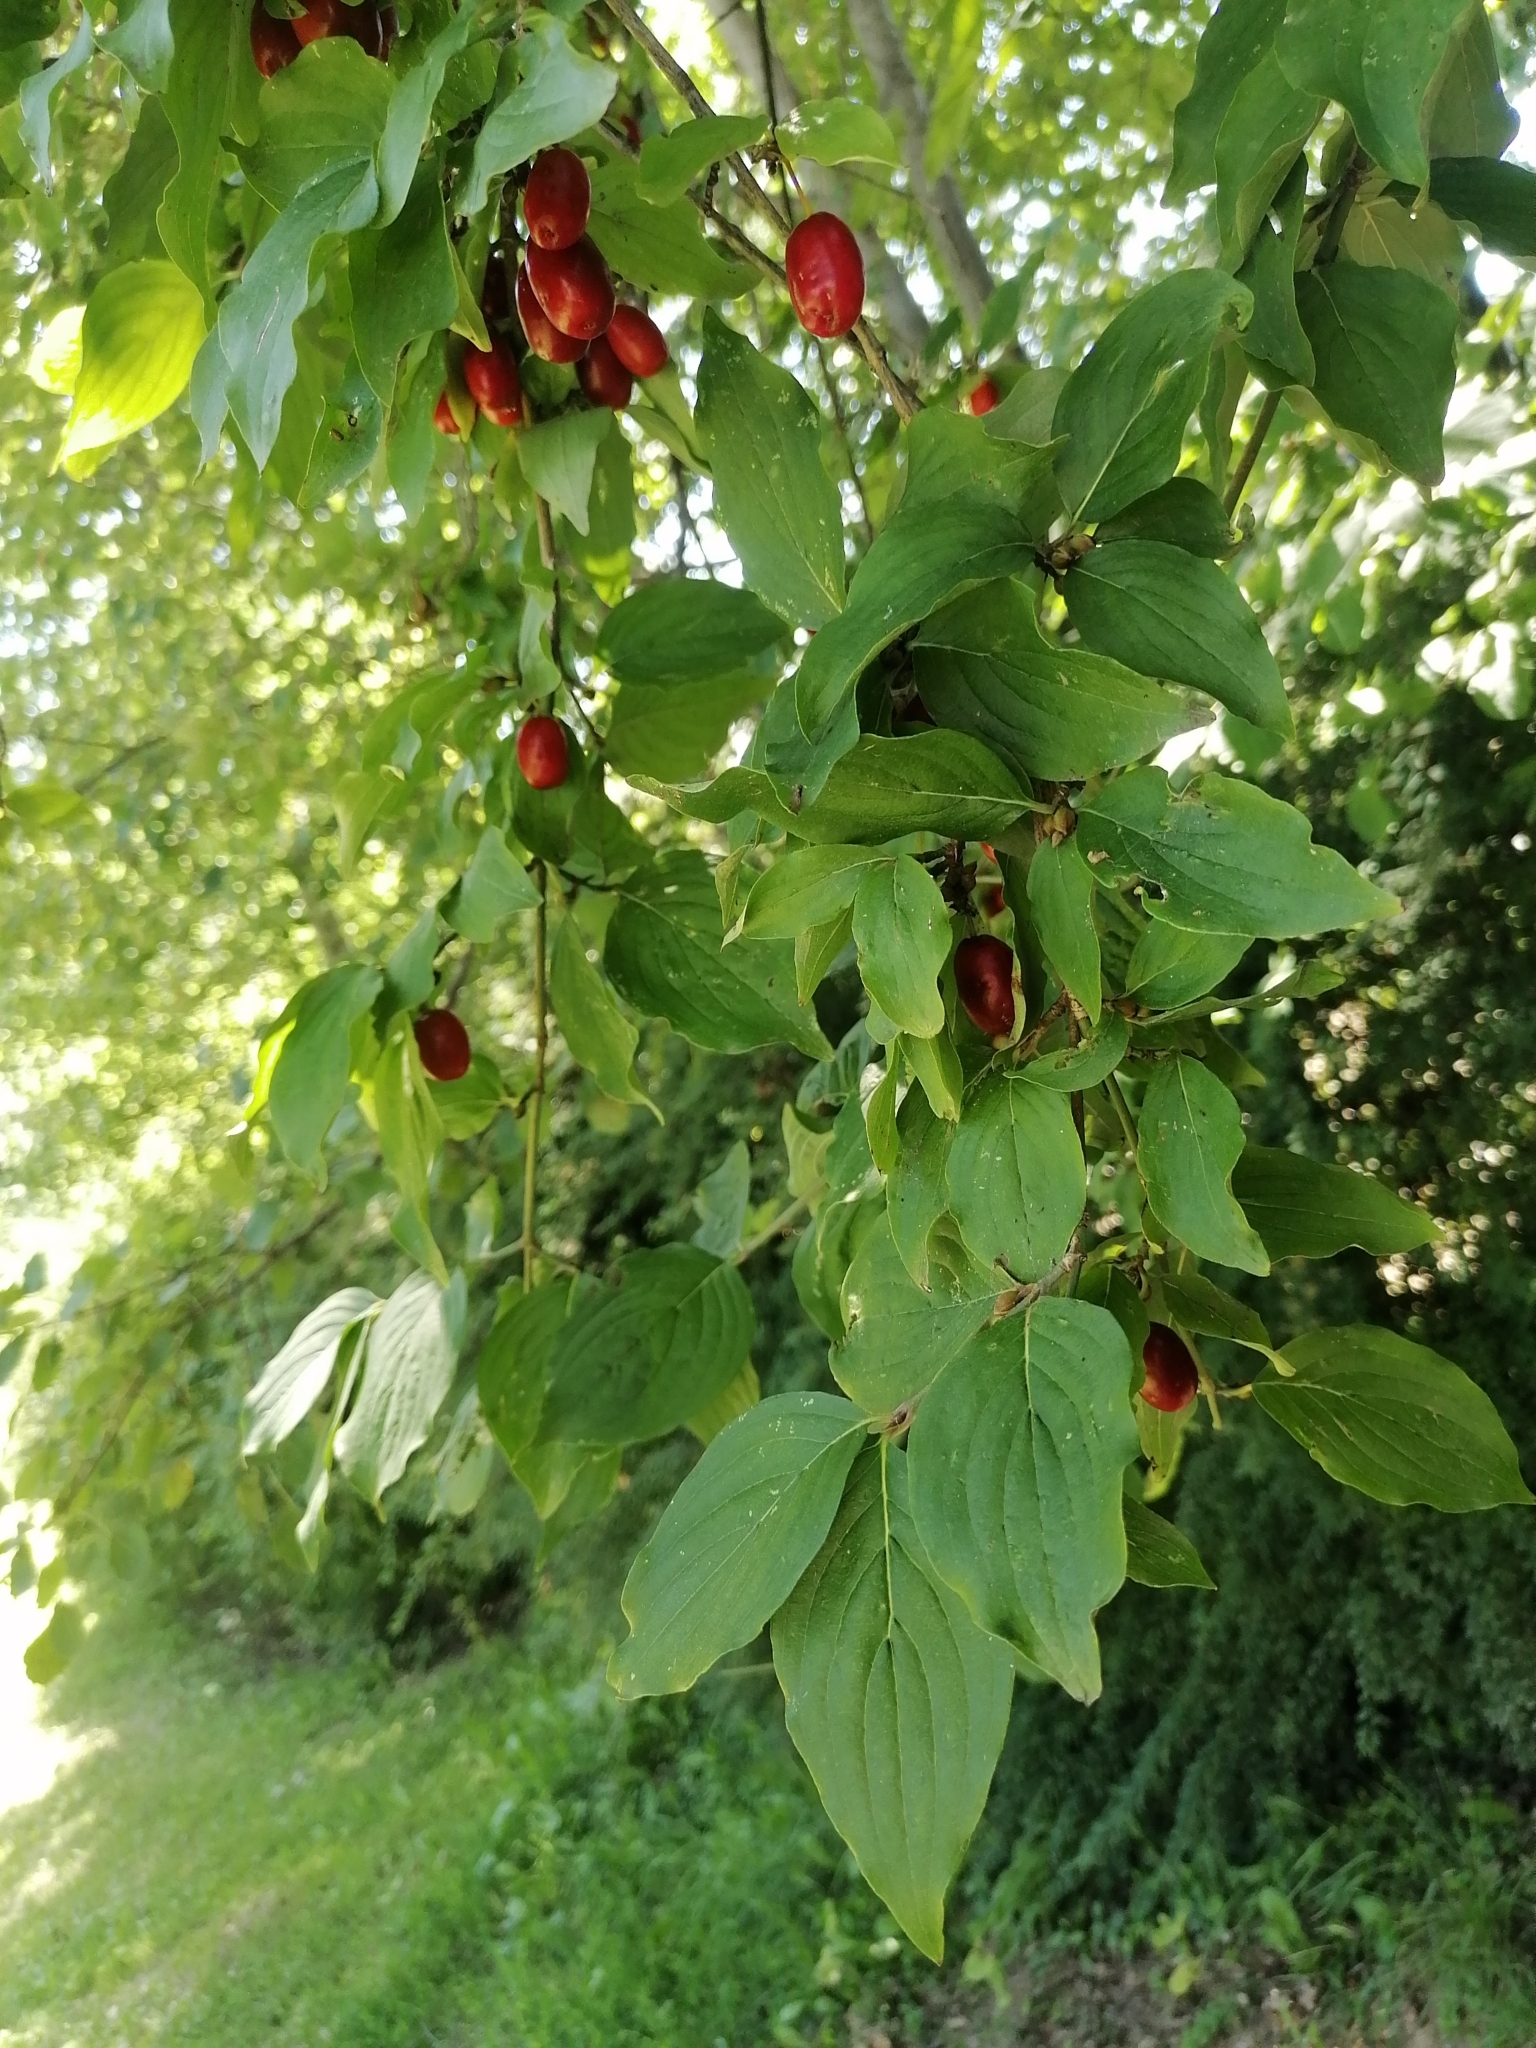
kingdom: Plantae
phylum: Tracheophyta
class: Magnoliopsida
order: Cornales
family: Cornaceae
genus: Cornus
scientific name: Cornus mas
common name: Cornelian-cherry
